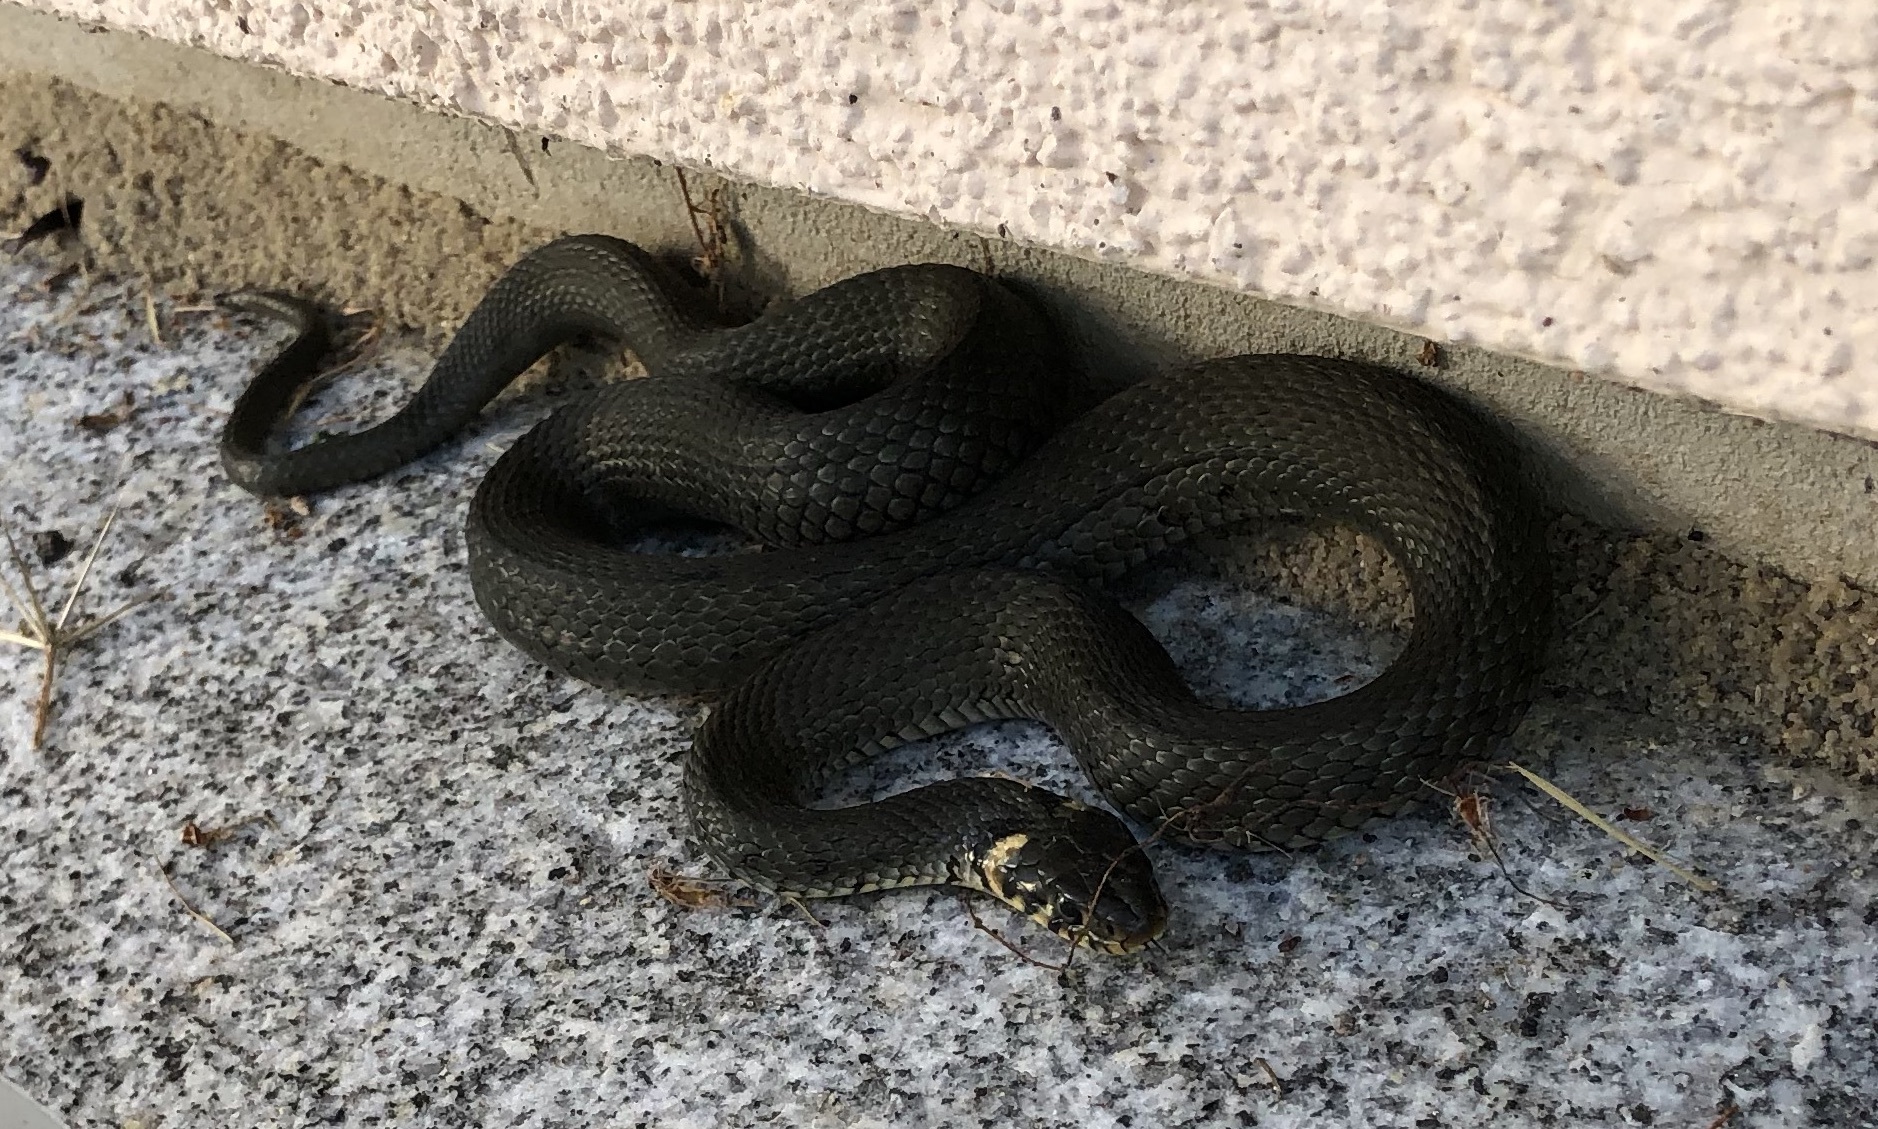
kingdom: Animalia
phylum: Chordata
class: Squamata
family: Colubridae
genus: Natrix
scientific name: Natrix natrix
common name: Grass snake
